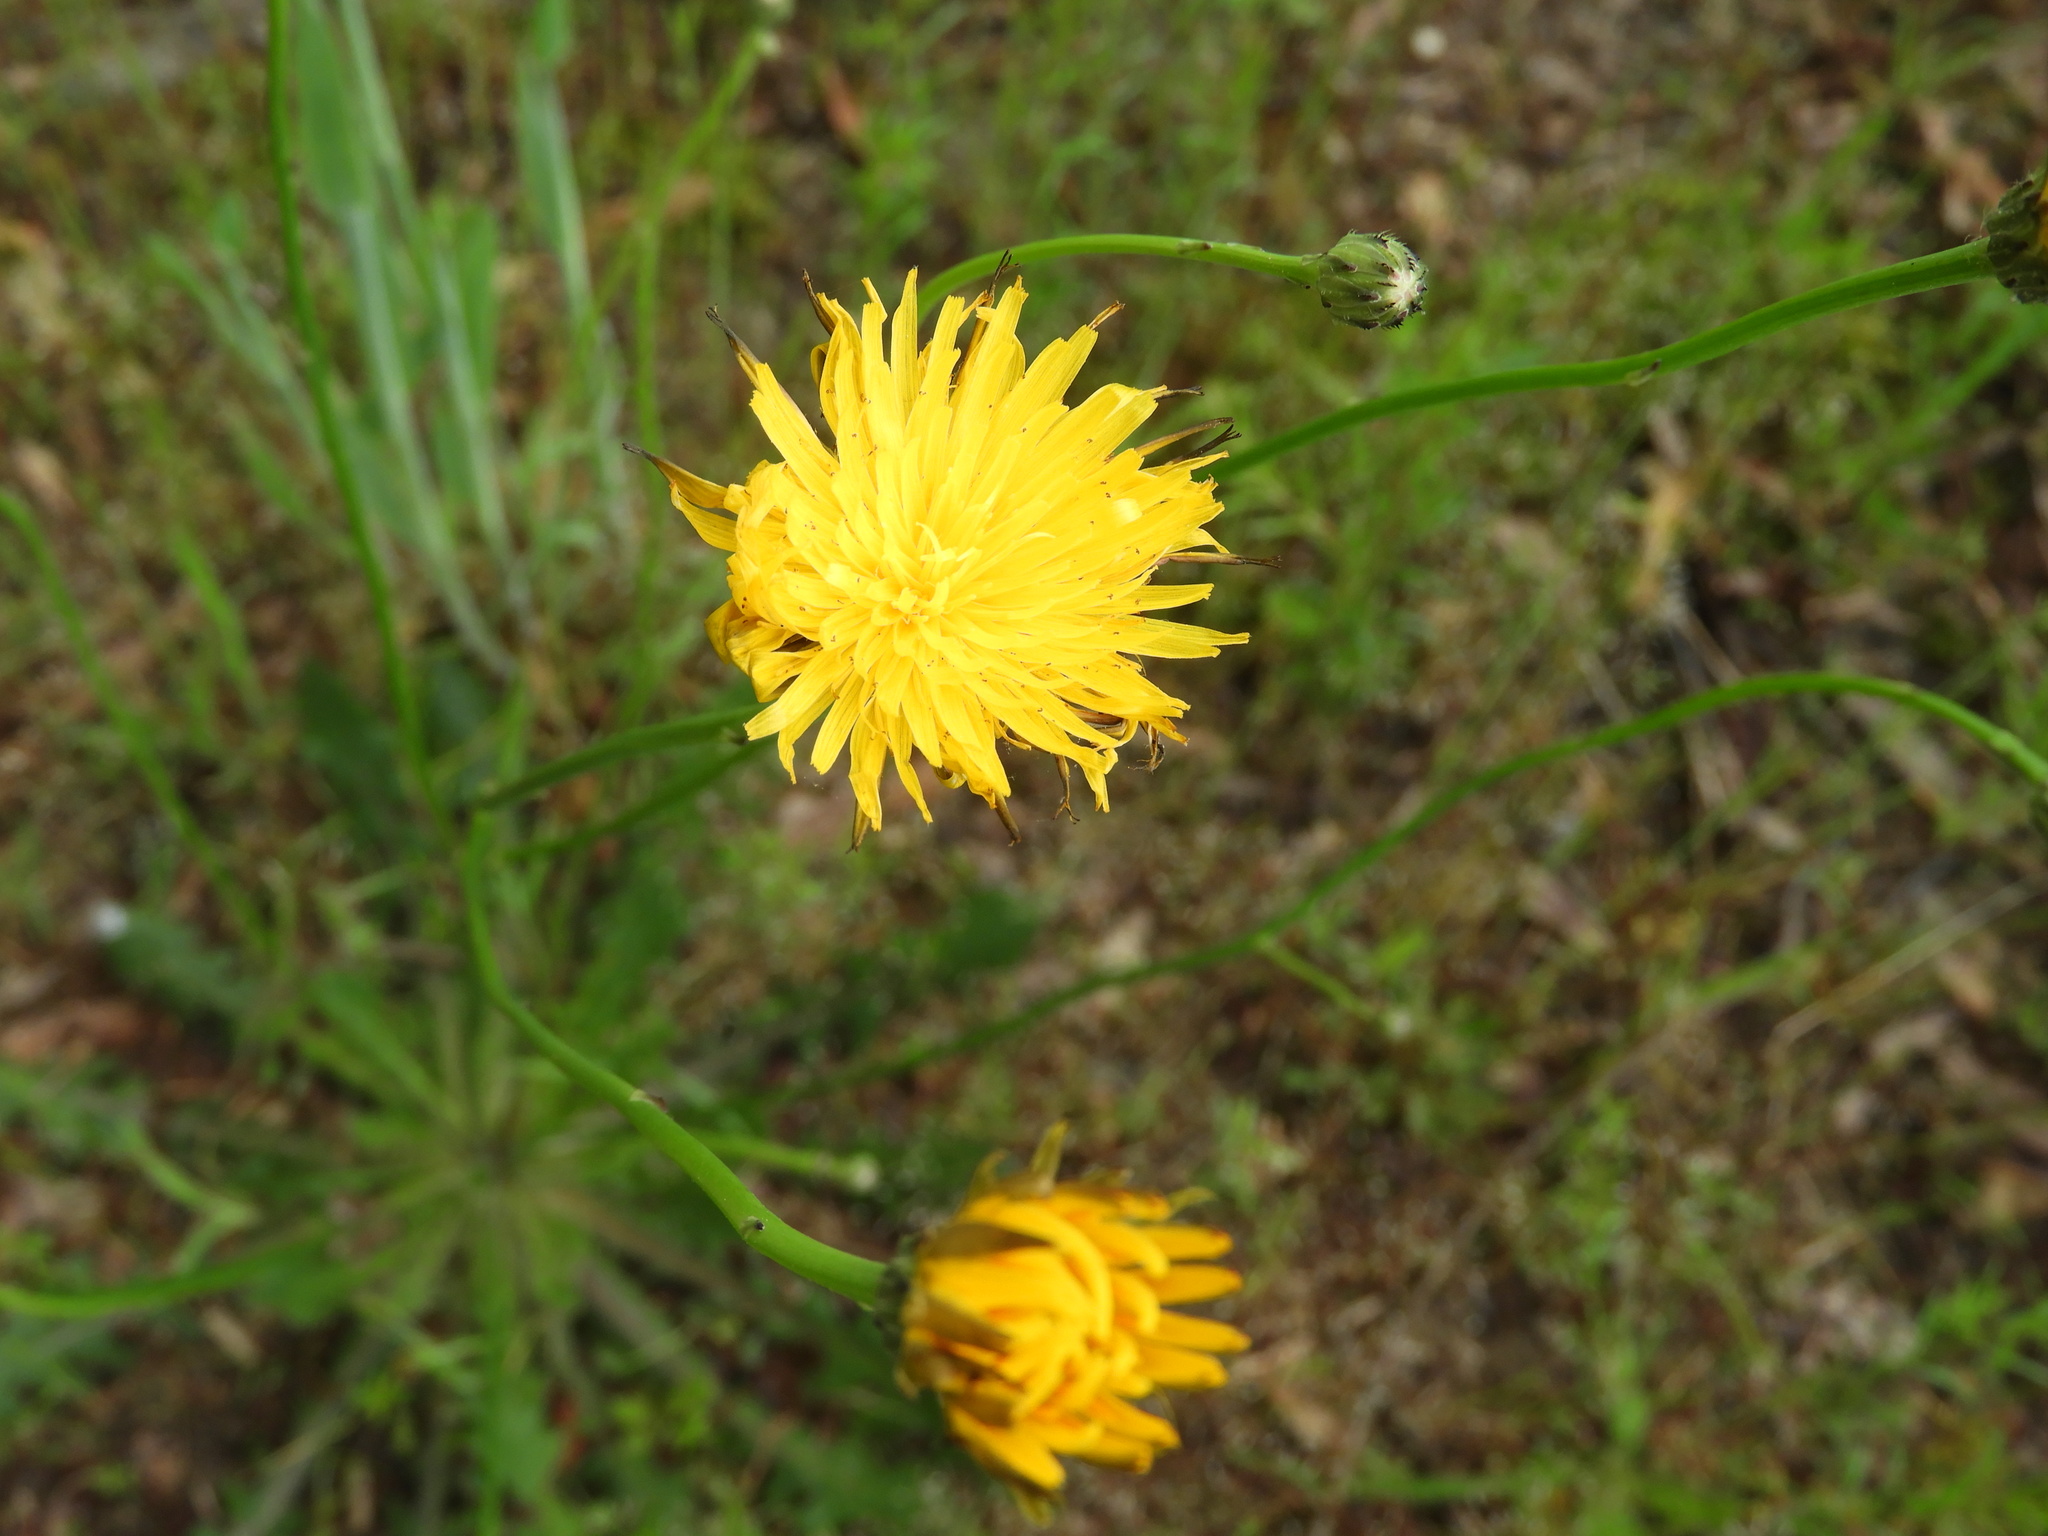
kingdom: Plantae
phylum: Tracheophyta
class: Magnoliopsida
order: Asterales
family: Asteraceae
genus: Hypochaeris
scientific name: Hypochaeris radicata
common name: Flatweed
